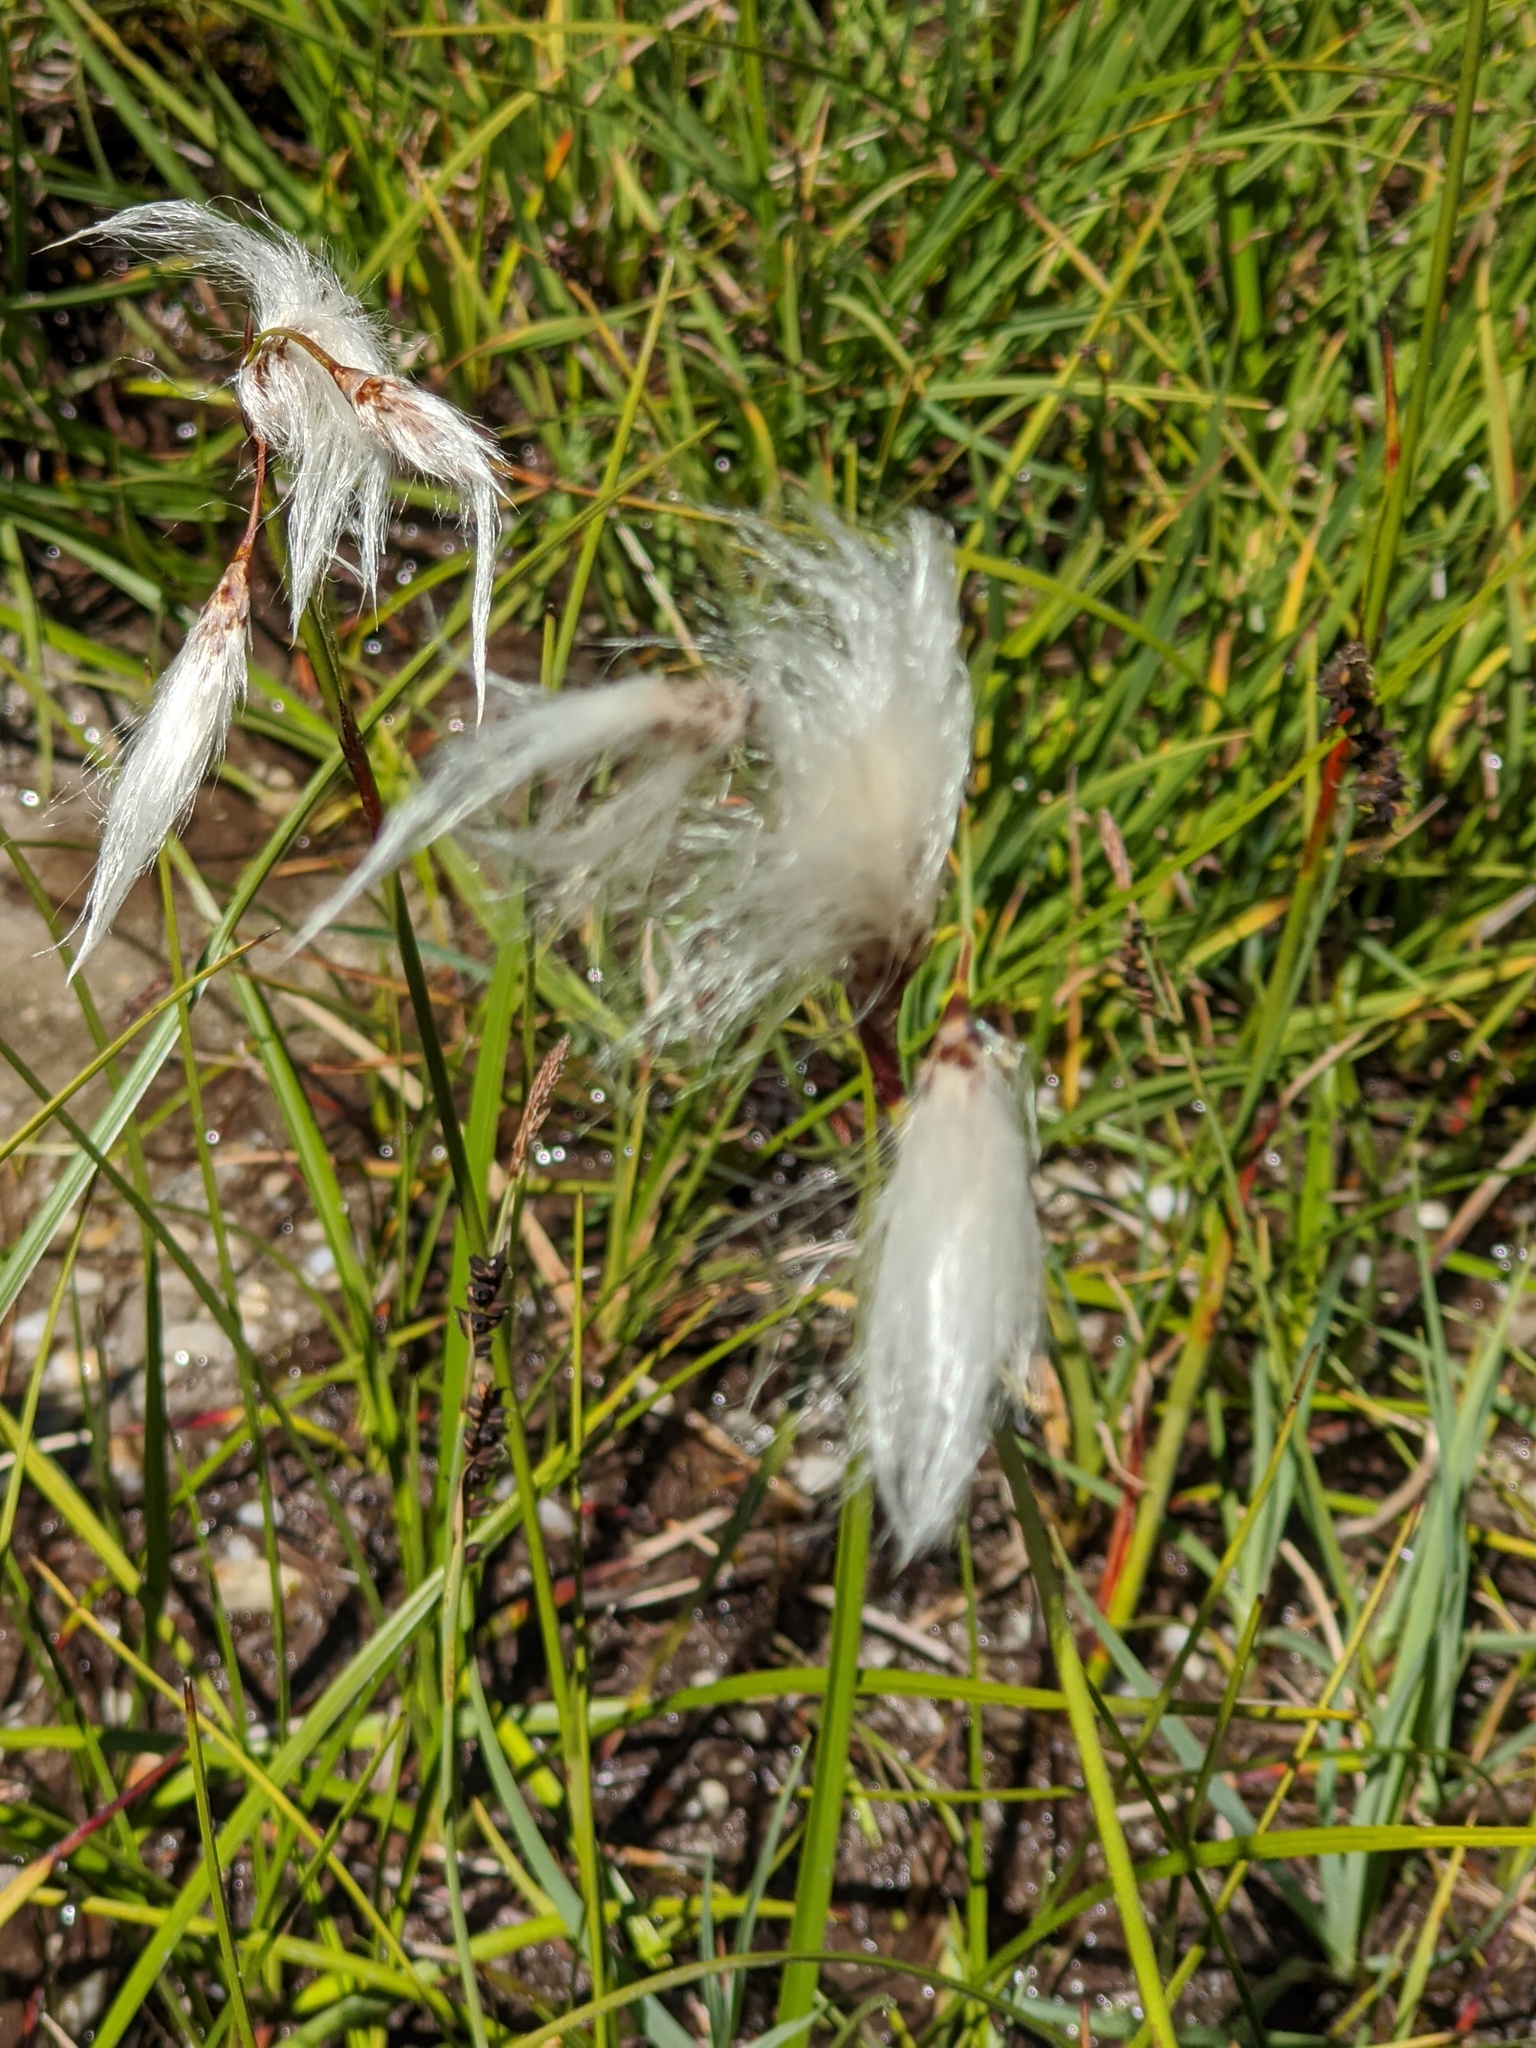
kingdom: Plantae
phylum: Tracheophyta
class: Liliopsida
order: Poales
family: Cyperaceae
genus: Eriophorum
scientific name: Eriophorum angustifolium
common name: Common cottongrass
